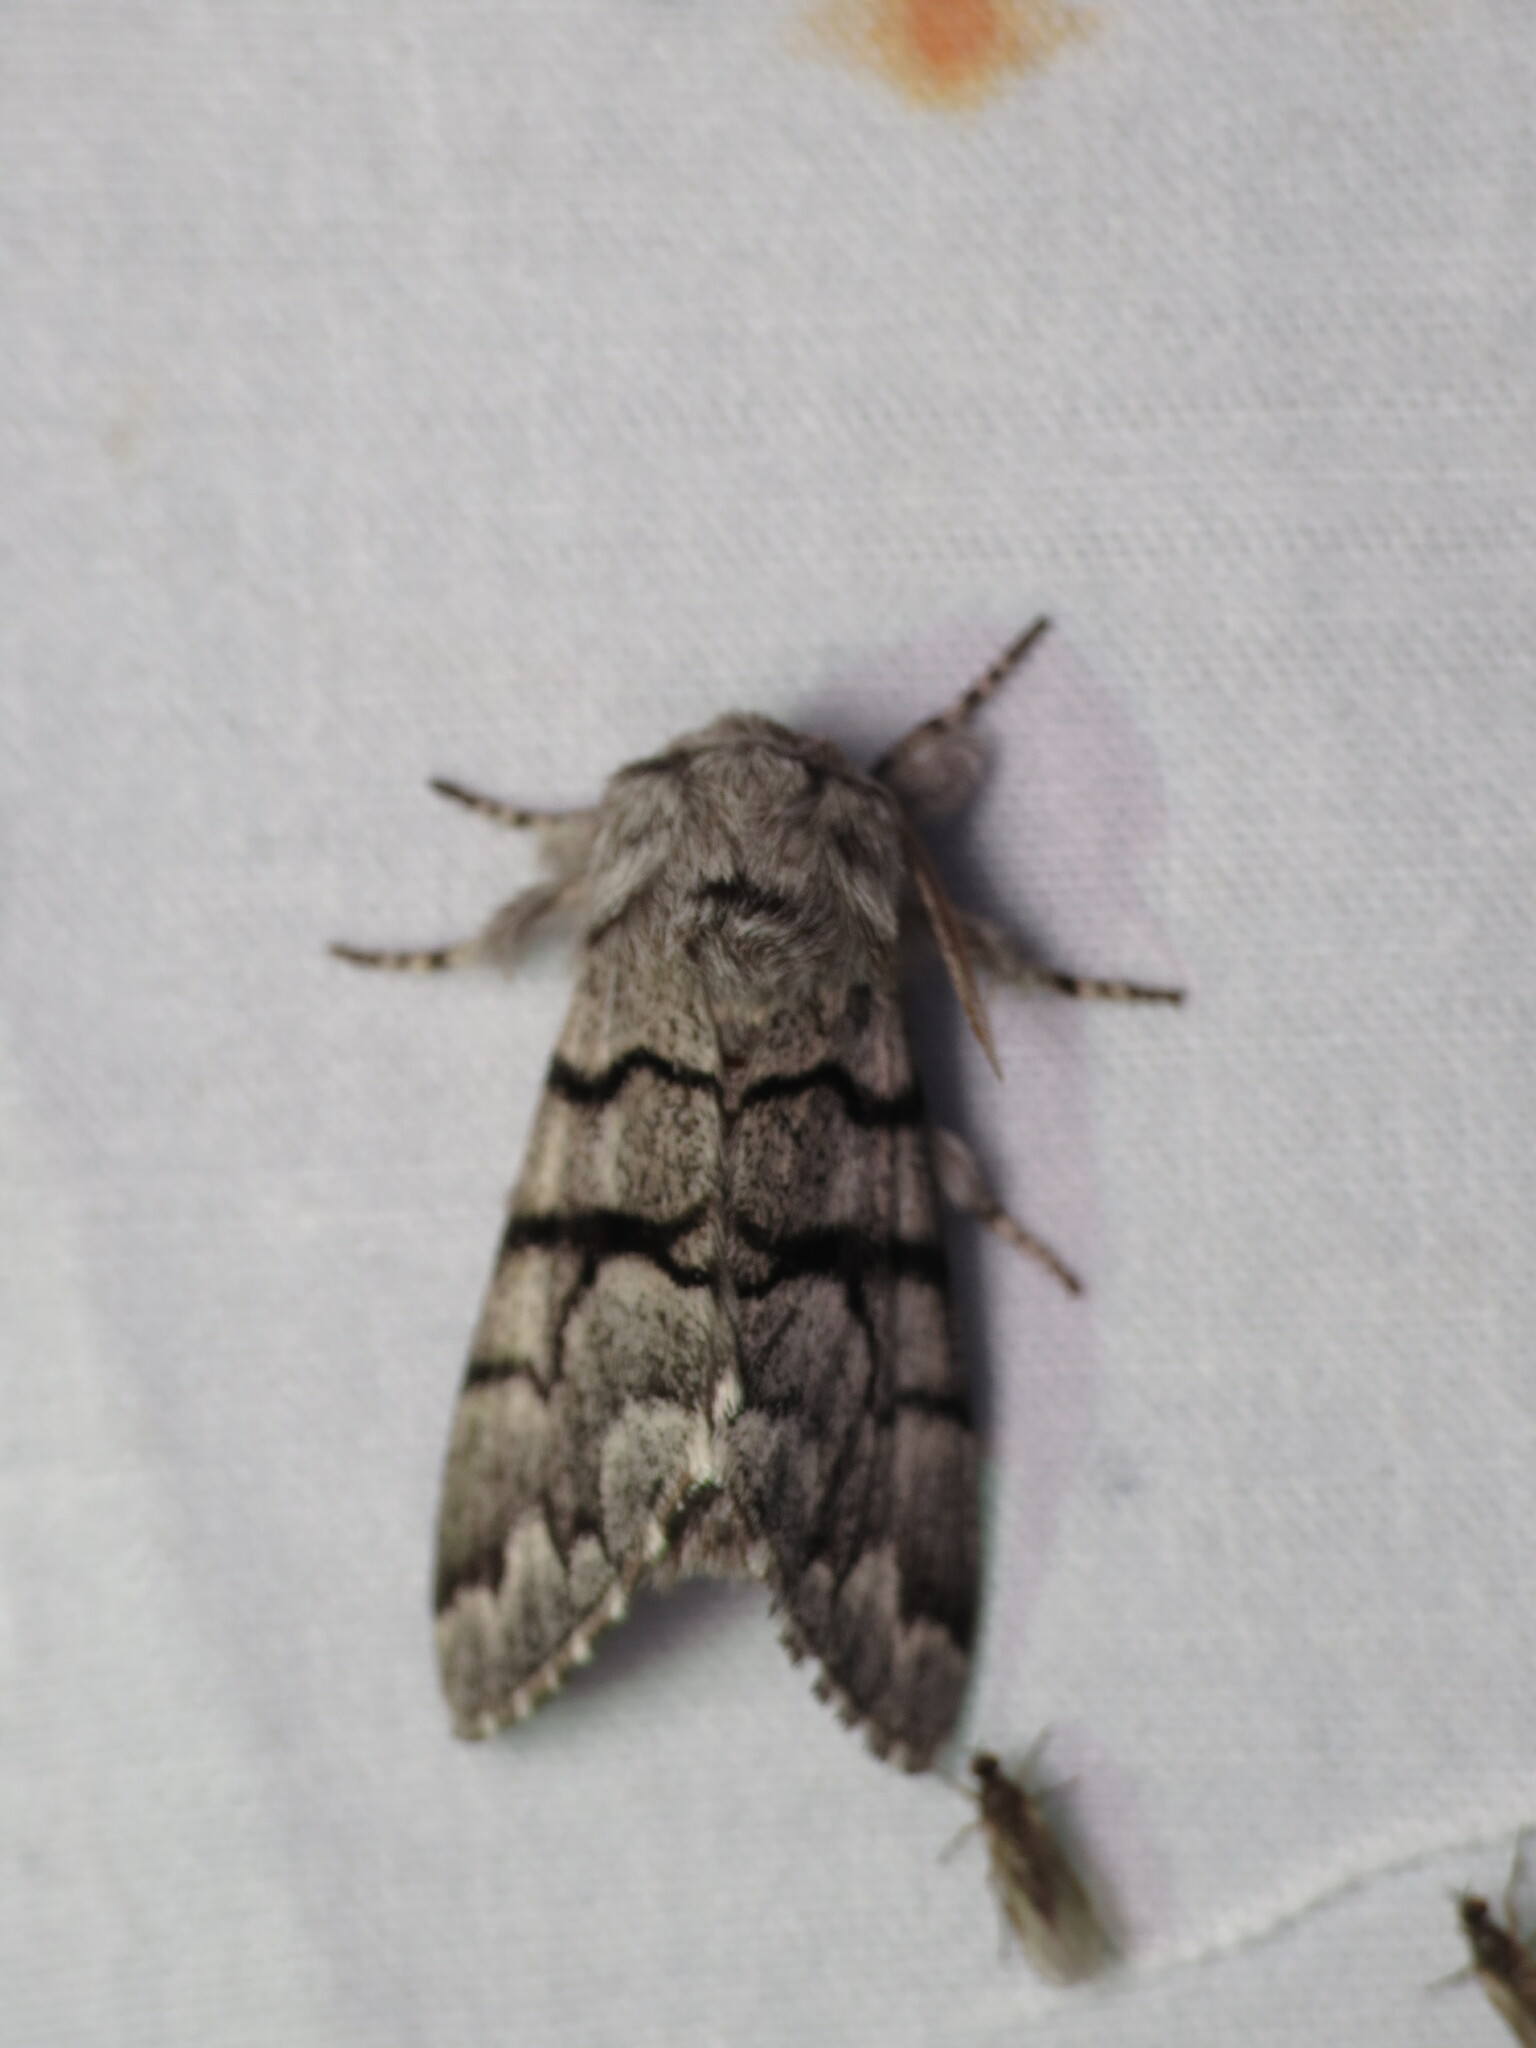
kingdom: Animalia
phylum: Arthropoda
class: Insecta
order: Lepidoptera
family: Noctuidae
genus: Panthea
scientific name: Panthea furcilla
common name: Eastern panthea moth
